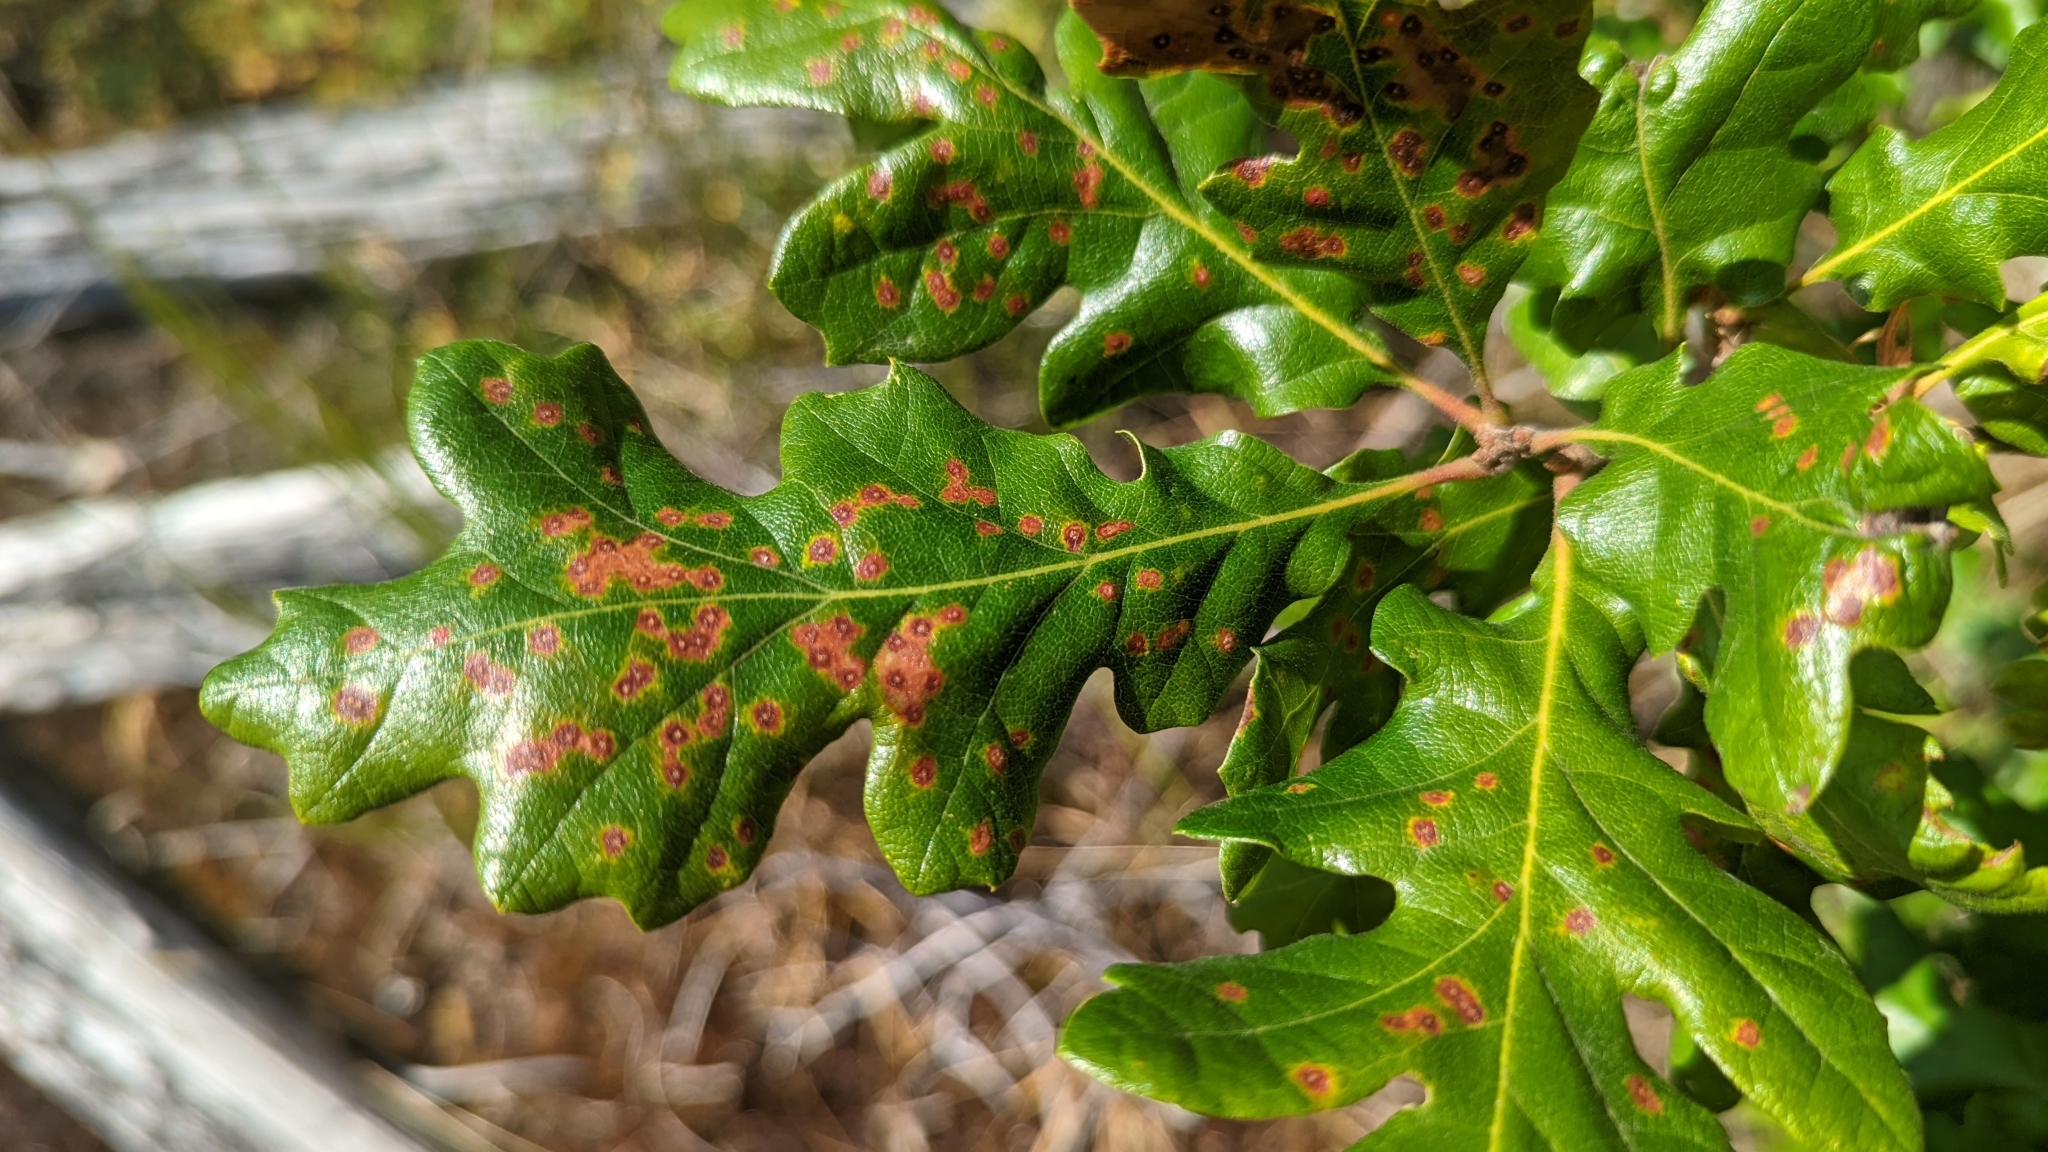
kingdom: Animalia
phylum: Arthropoda
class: Insecta
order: Hymenoptera
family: Cynipidae
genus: Neuroterus
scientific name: Neuroterus saltarius
